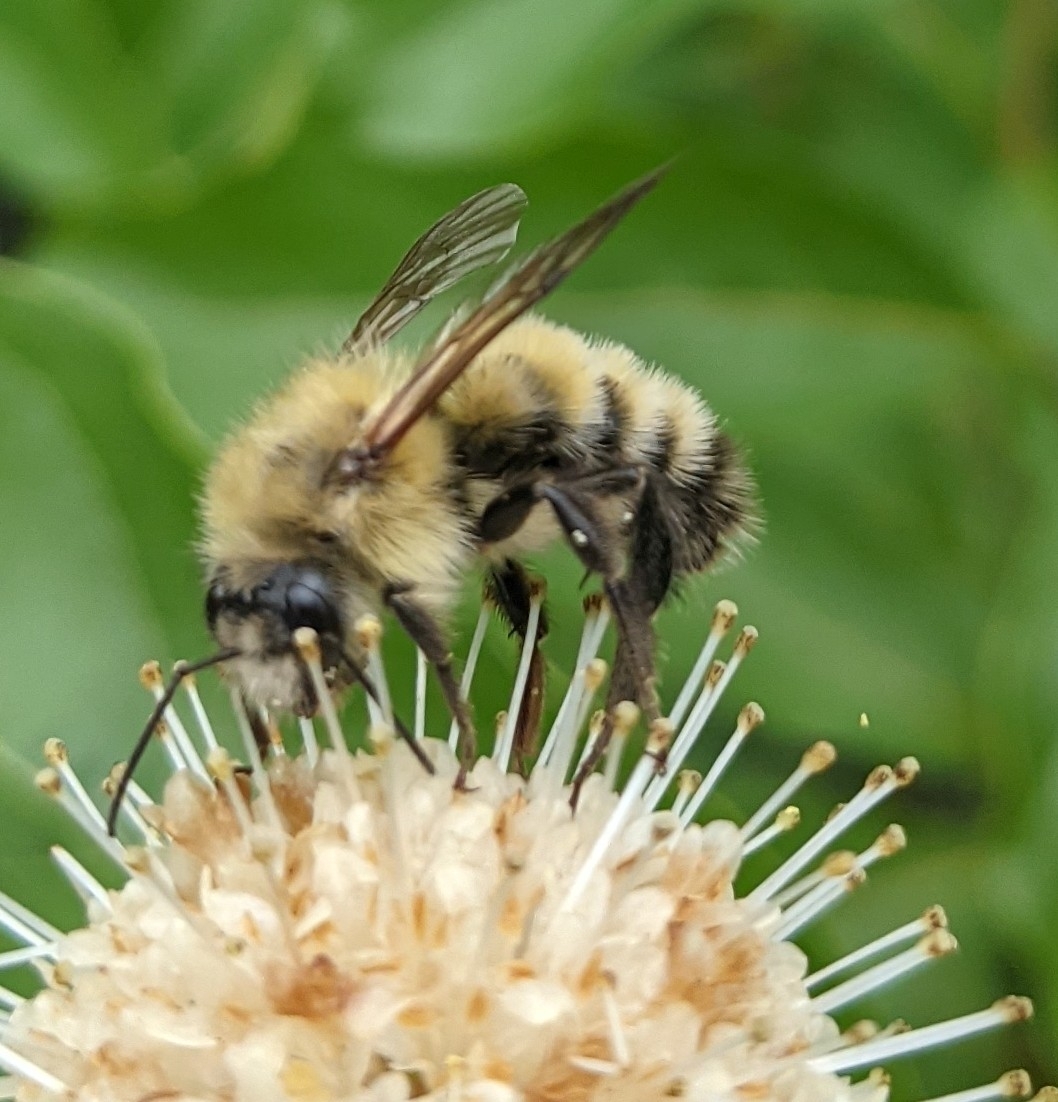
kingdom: Animalia
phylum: Arthropoda
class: Insecta
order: Hymenoptera
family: Apidae
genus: Bombus
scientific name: Bombus perplexus
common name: Confusing bumble bee
